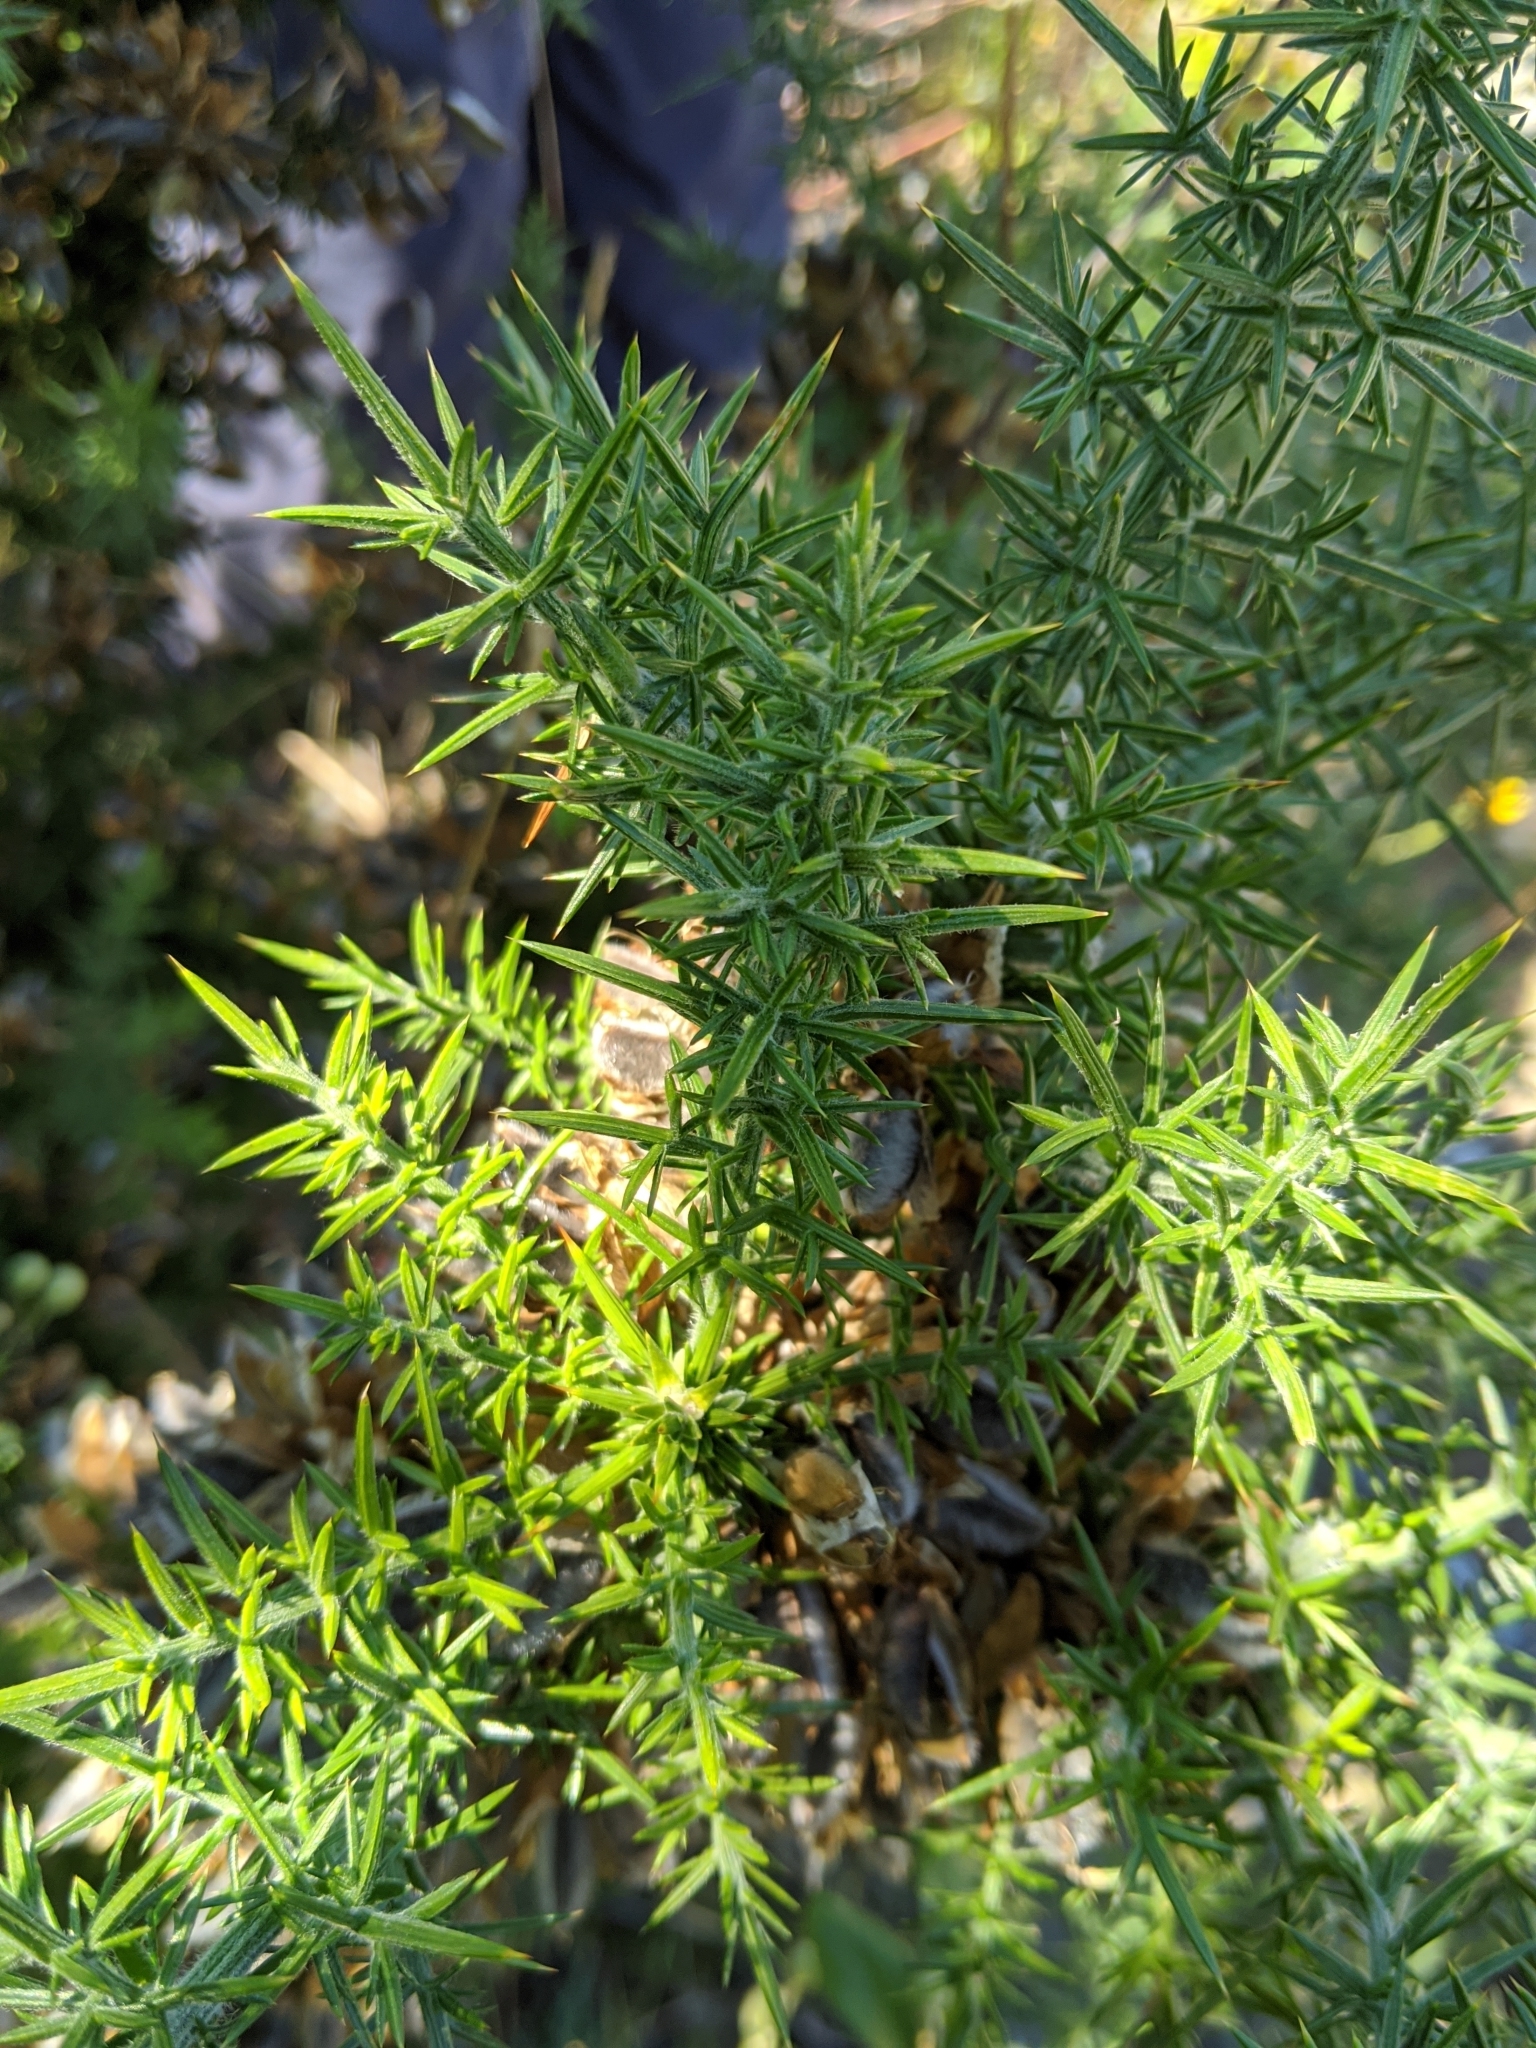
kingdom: Plantae
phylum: Tracheophyta
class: Magnoliopsida
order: Fabales
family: Fabaceae
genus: Ulex
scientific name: Ulex europaeus
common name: Common gorse
